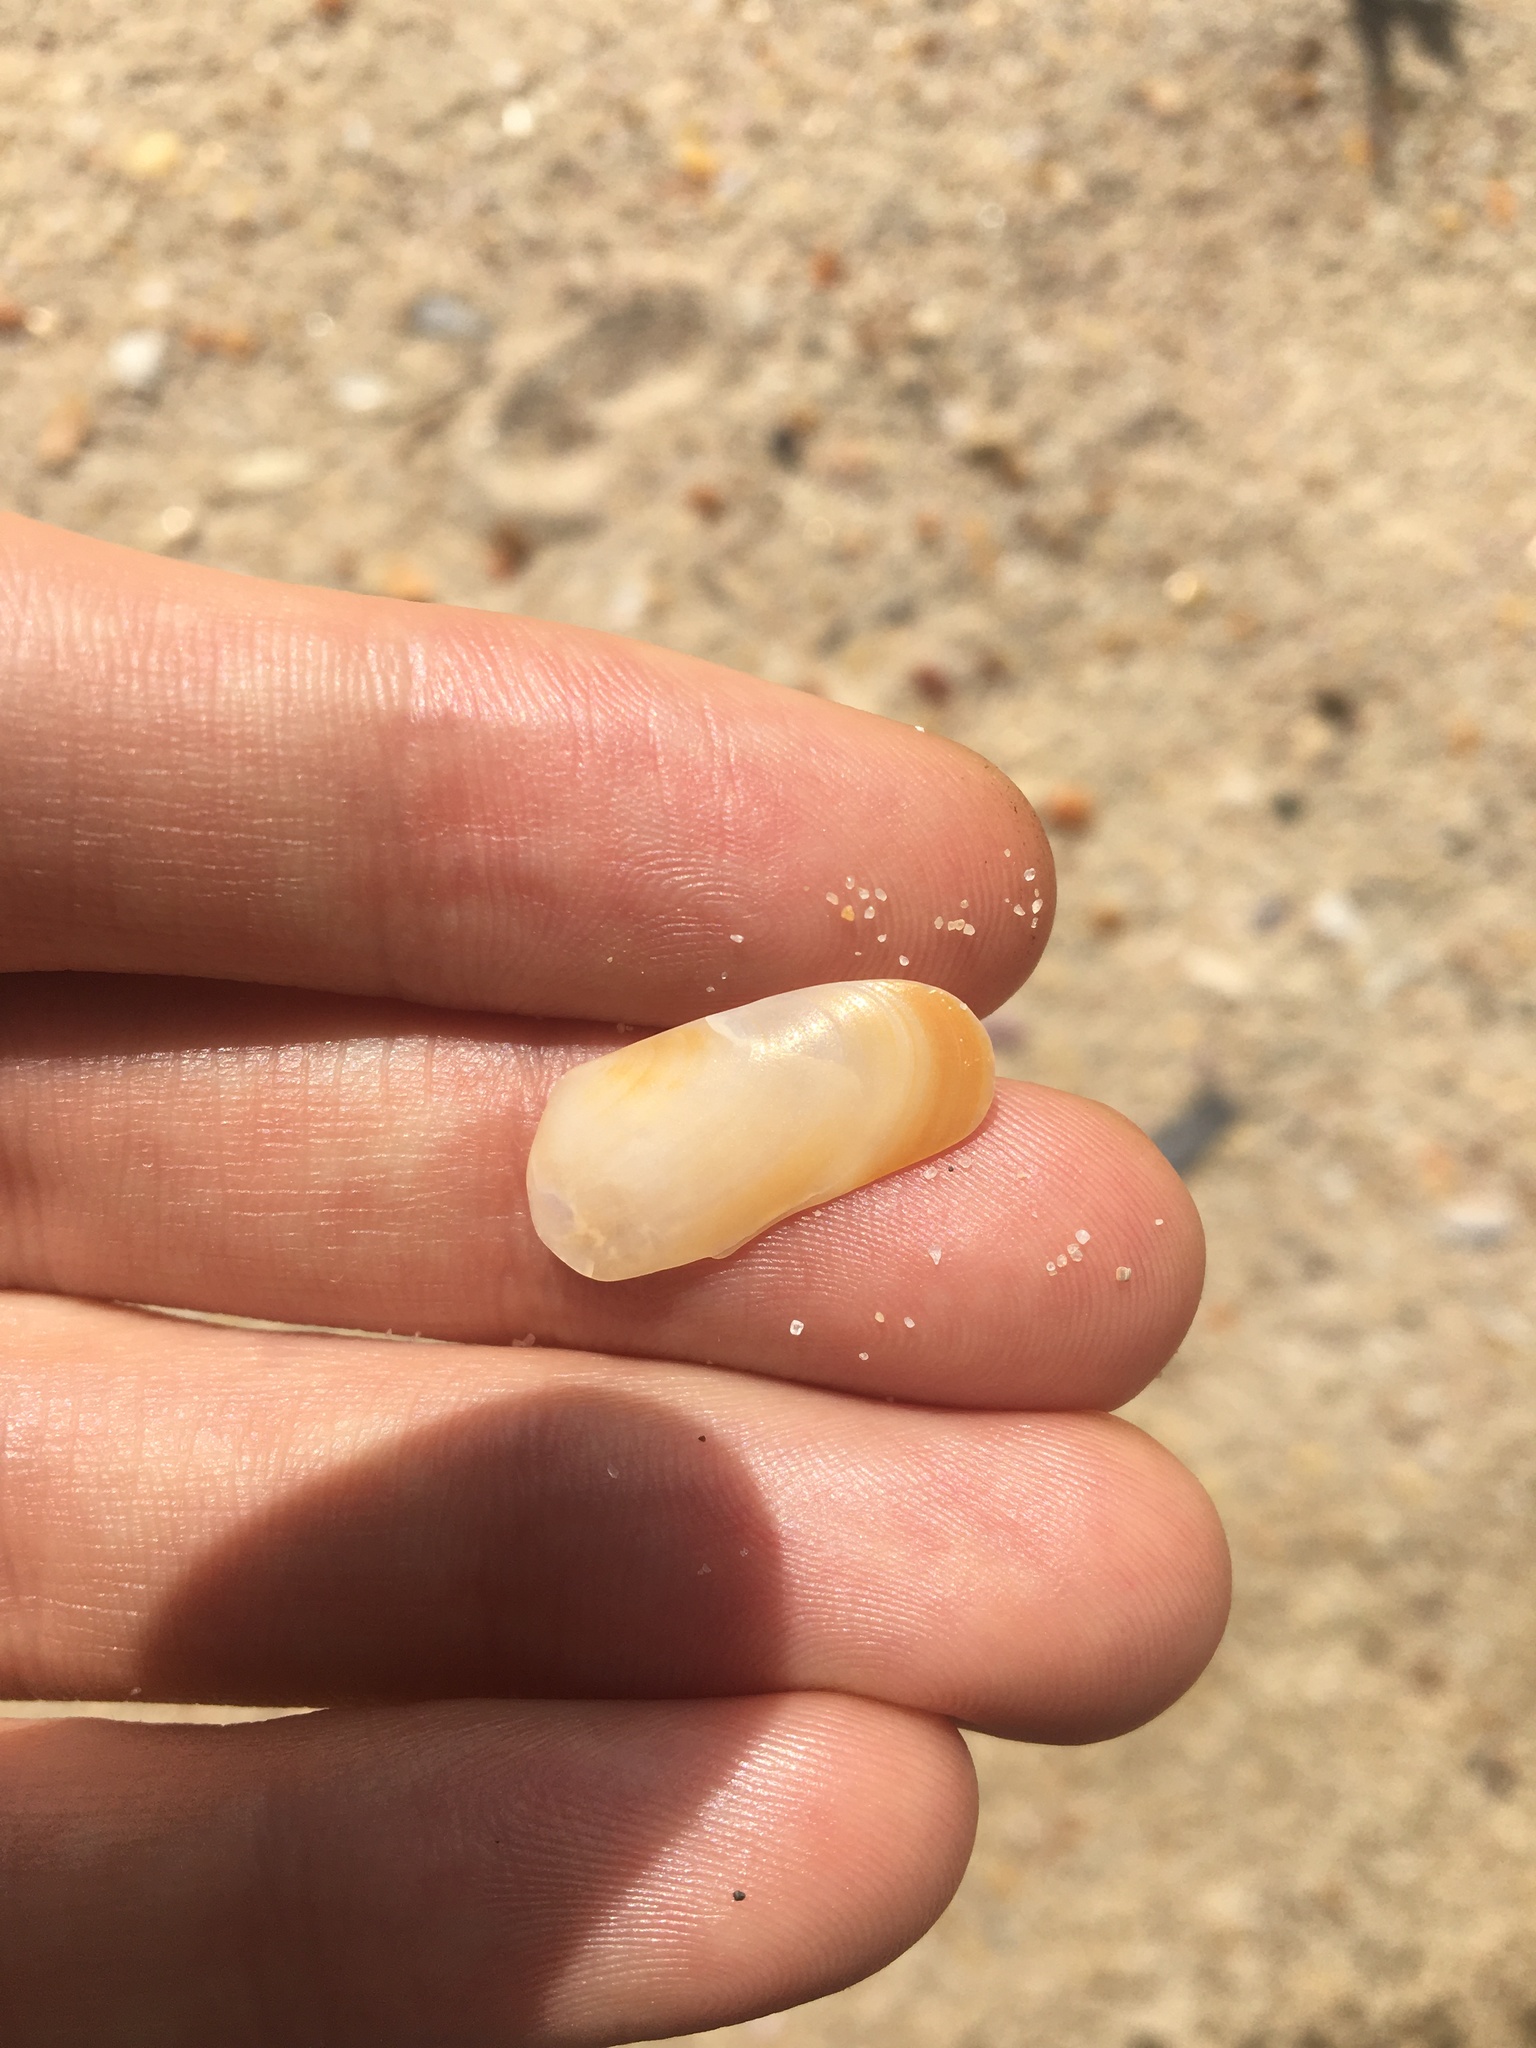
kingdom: Animalia
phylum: Mollusca
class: Bivalvia
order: Venerida
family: Mesodesmatidae
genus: Paphies
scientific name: Paphies angusta
